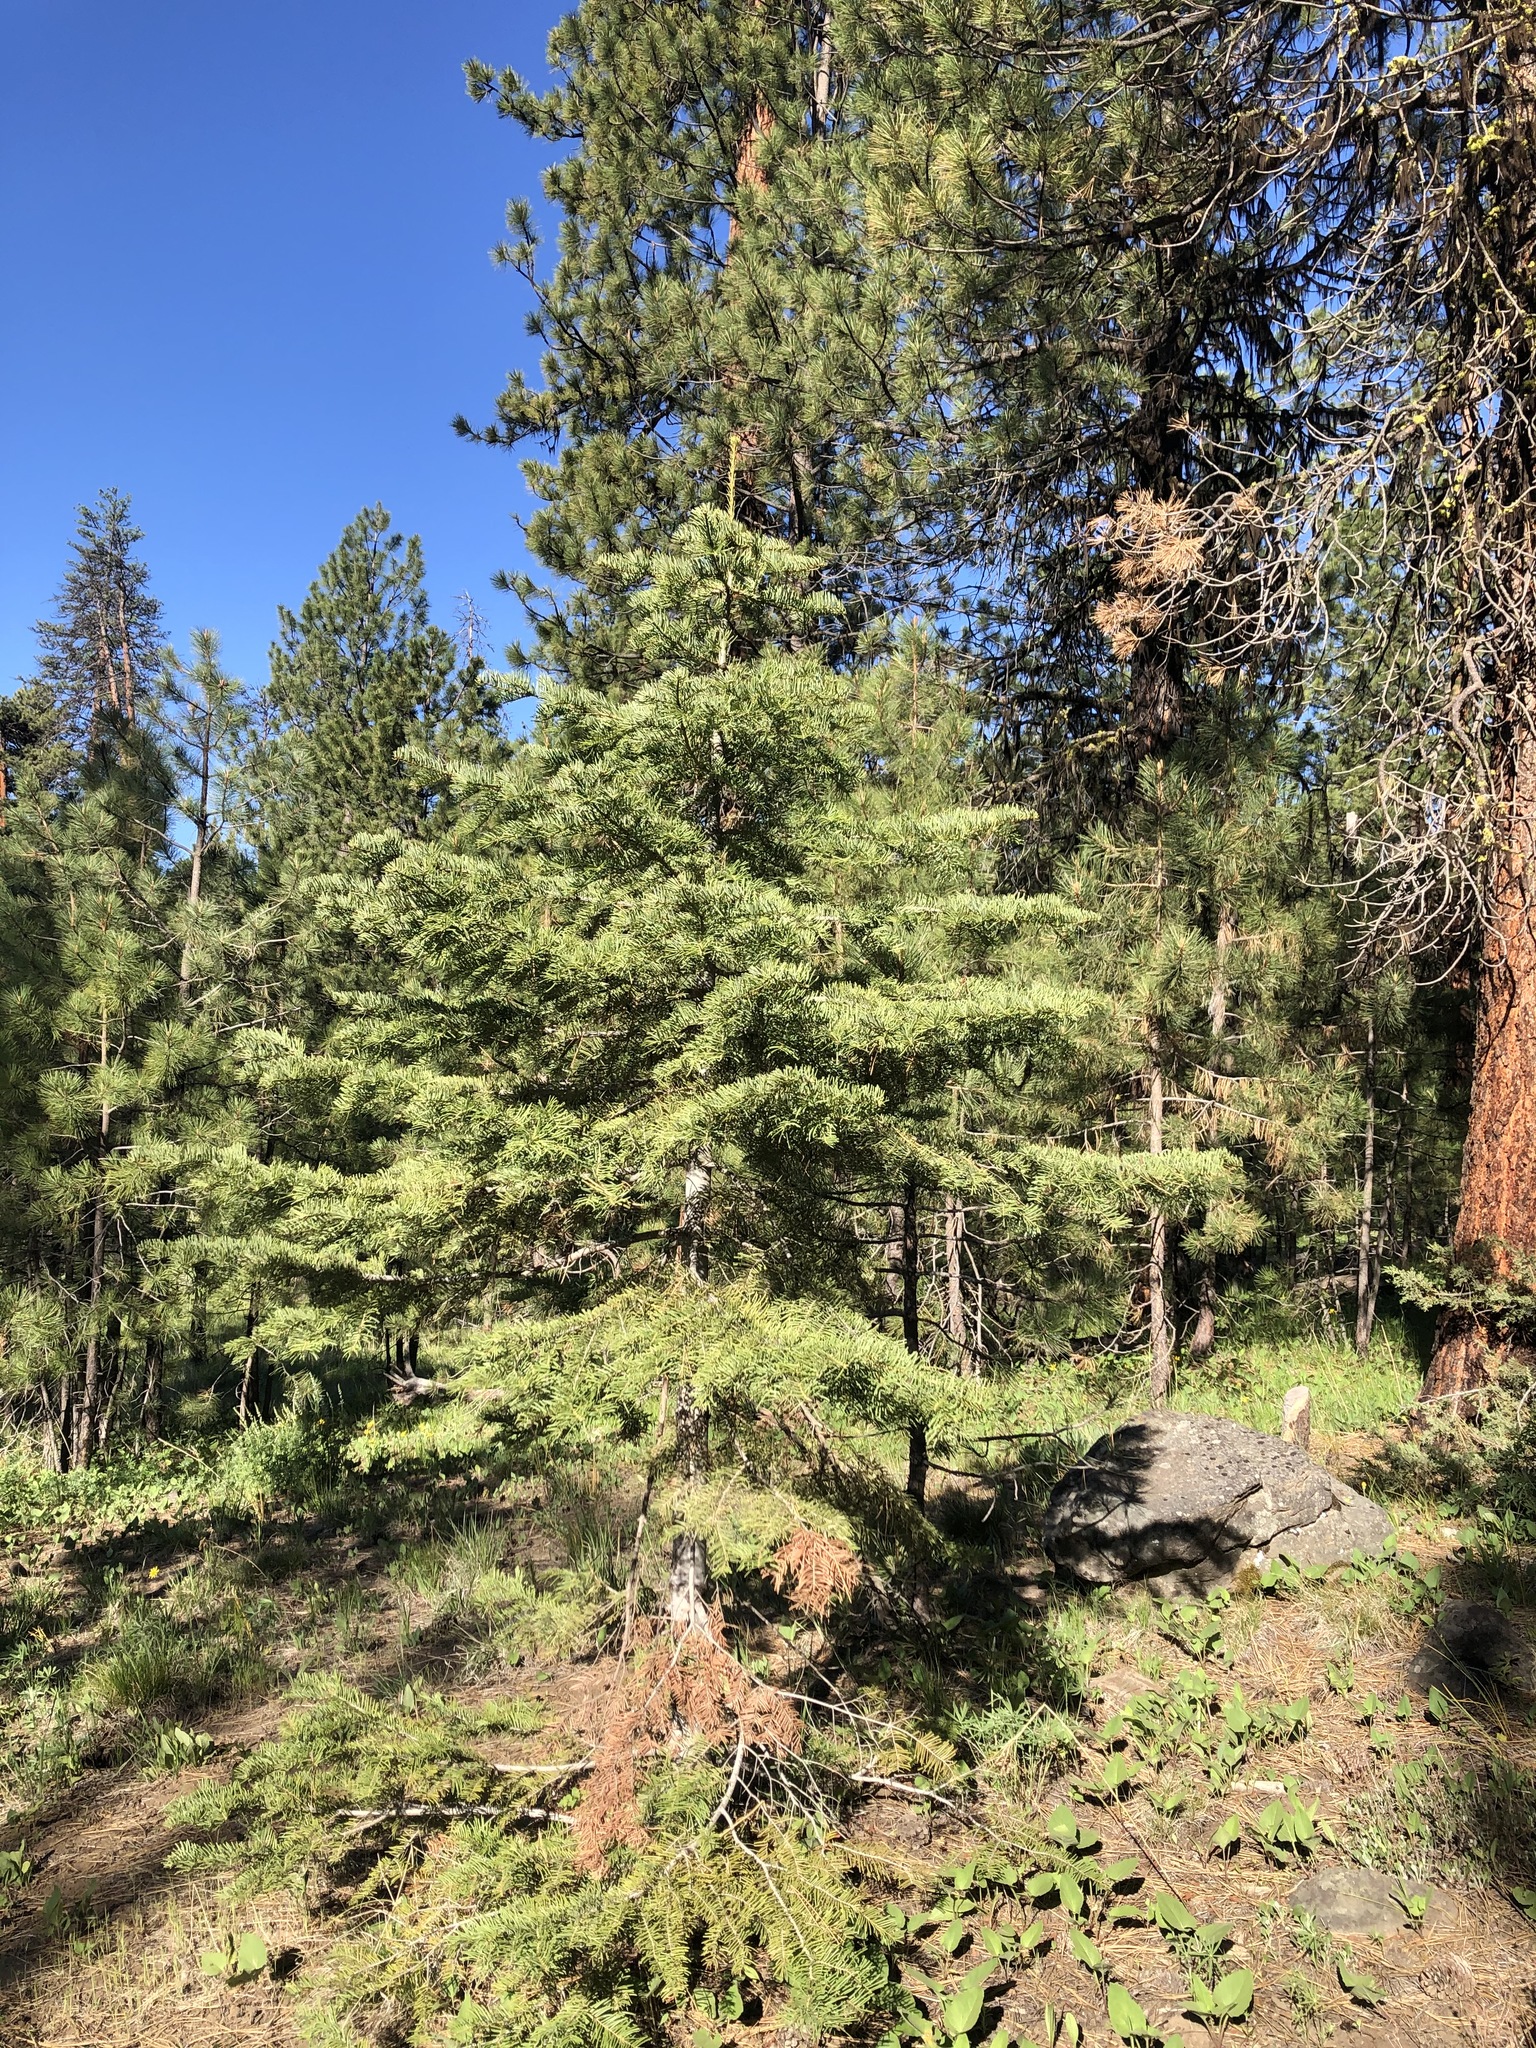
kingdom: Plantae
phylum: Tracheophyta
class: Pinopsida
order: Pinales
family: Pinaceae
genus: Abies
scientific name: Abies concolor
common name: Colorado fir
